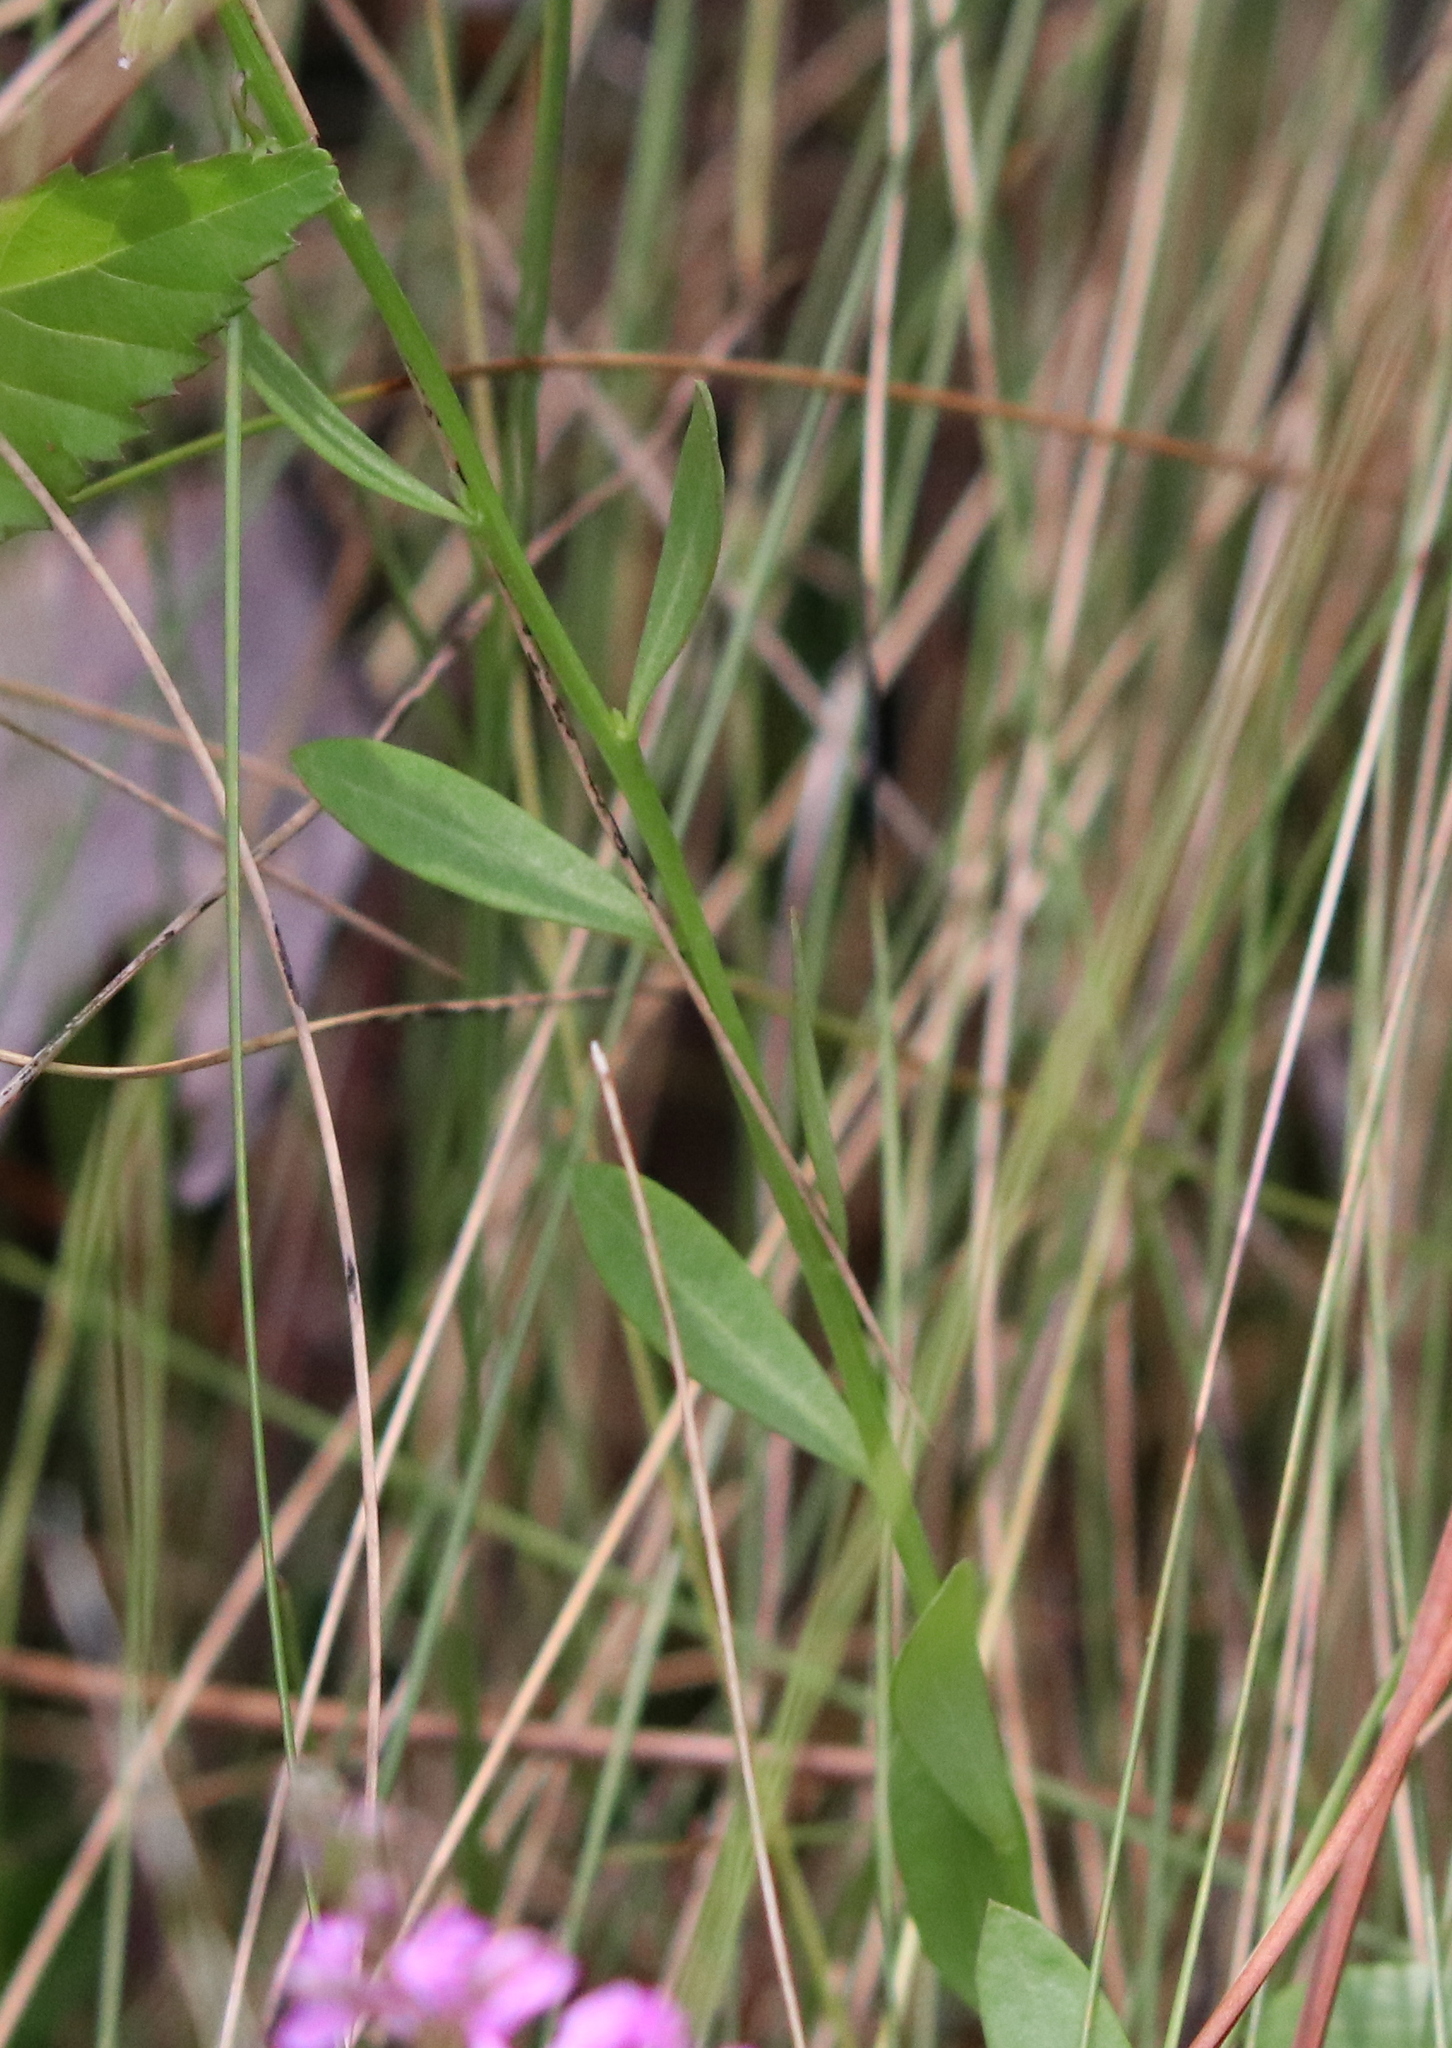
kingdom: Plantae
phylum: Tracheophyta
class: Magnoliopsida
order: Fabales
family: Polygalaceae
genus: Polygala
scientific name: Polygala crenata
